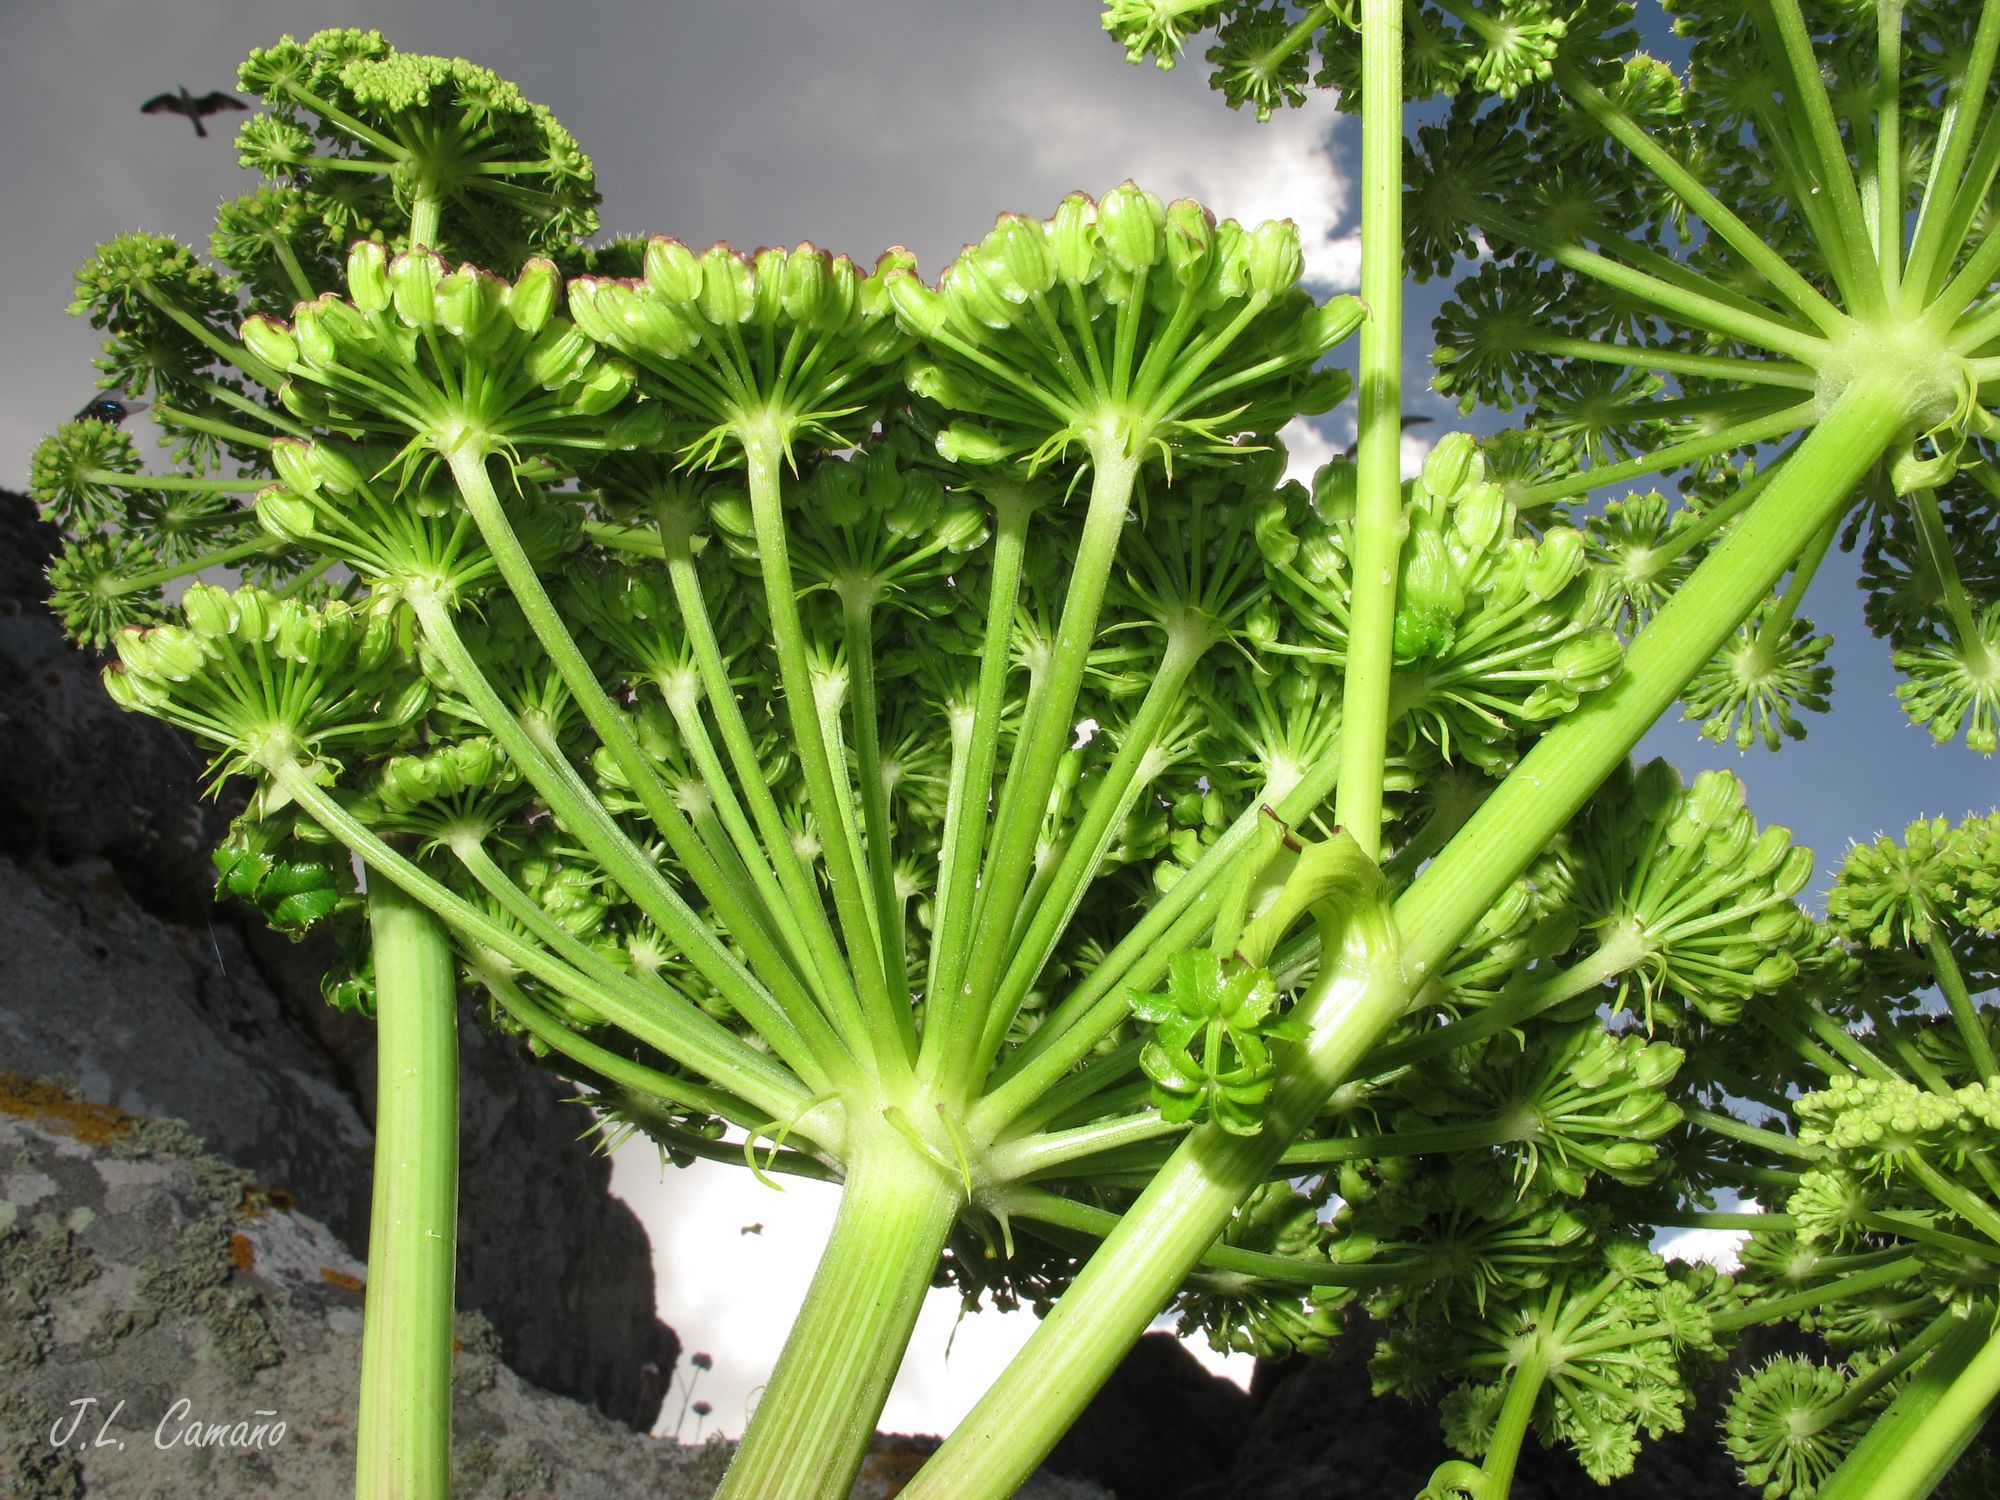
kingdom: Plantae
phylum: Tracheophyta
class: Magnoliopsida
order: Apiales
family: Apiaceae
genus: Angelica
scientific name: Angelica pachycarpa
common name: Portuguese angelica
